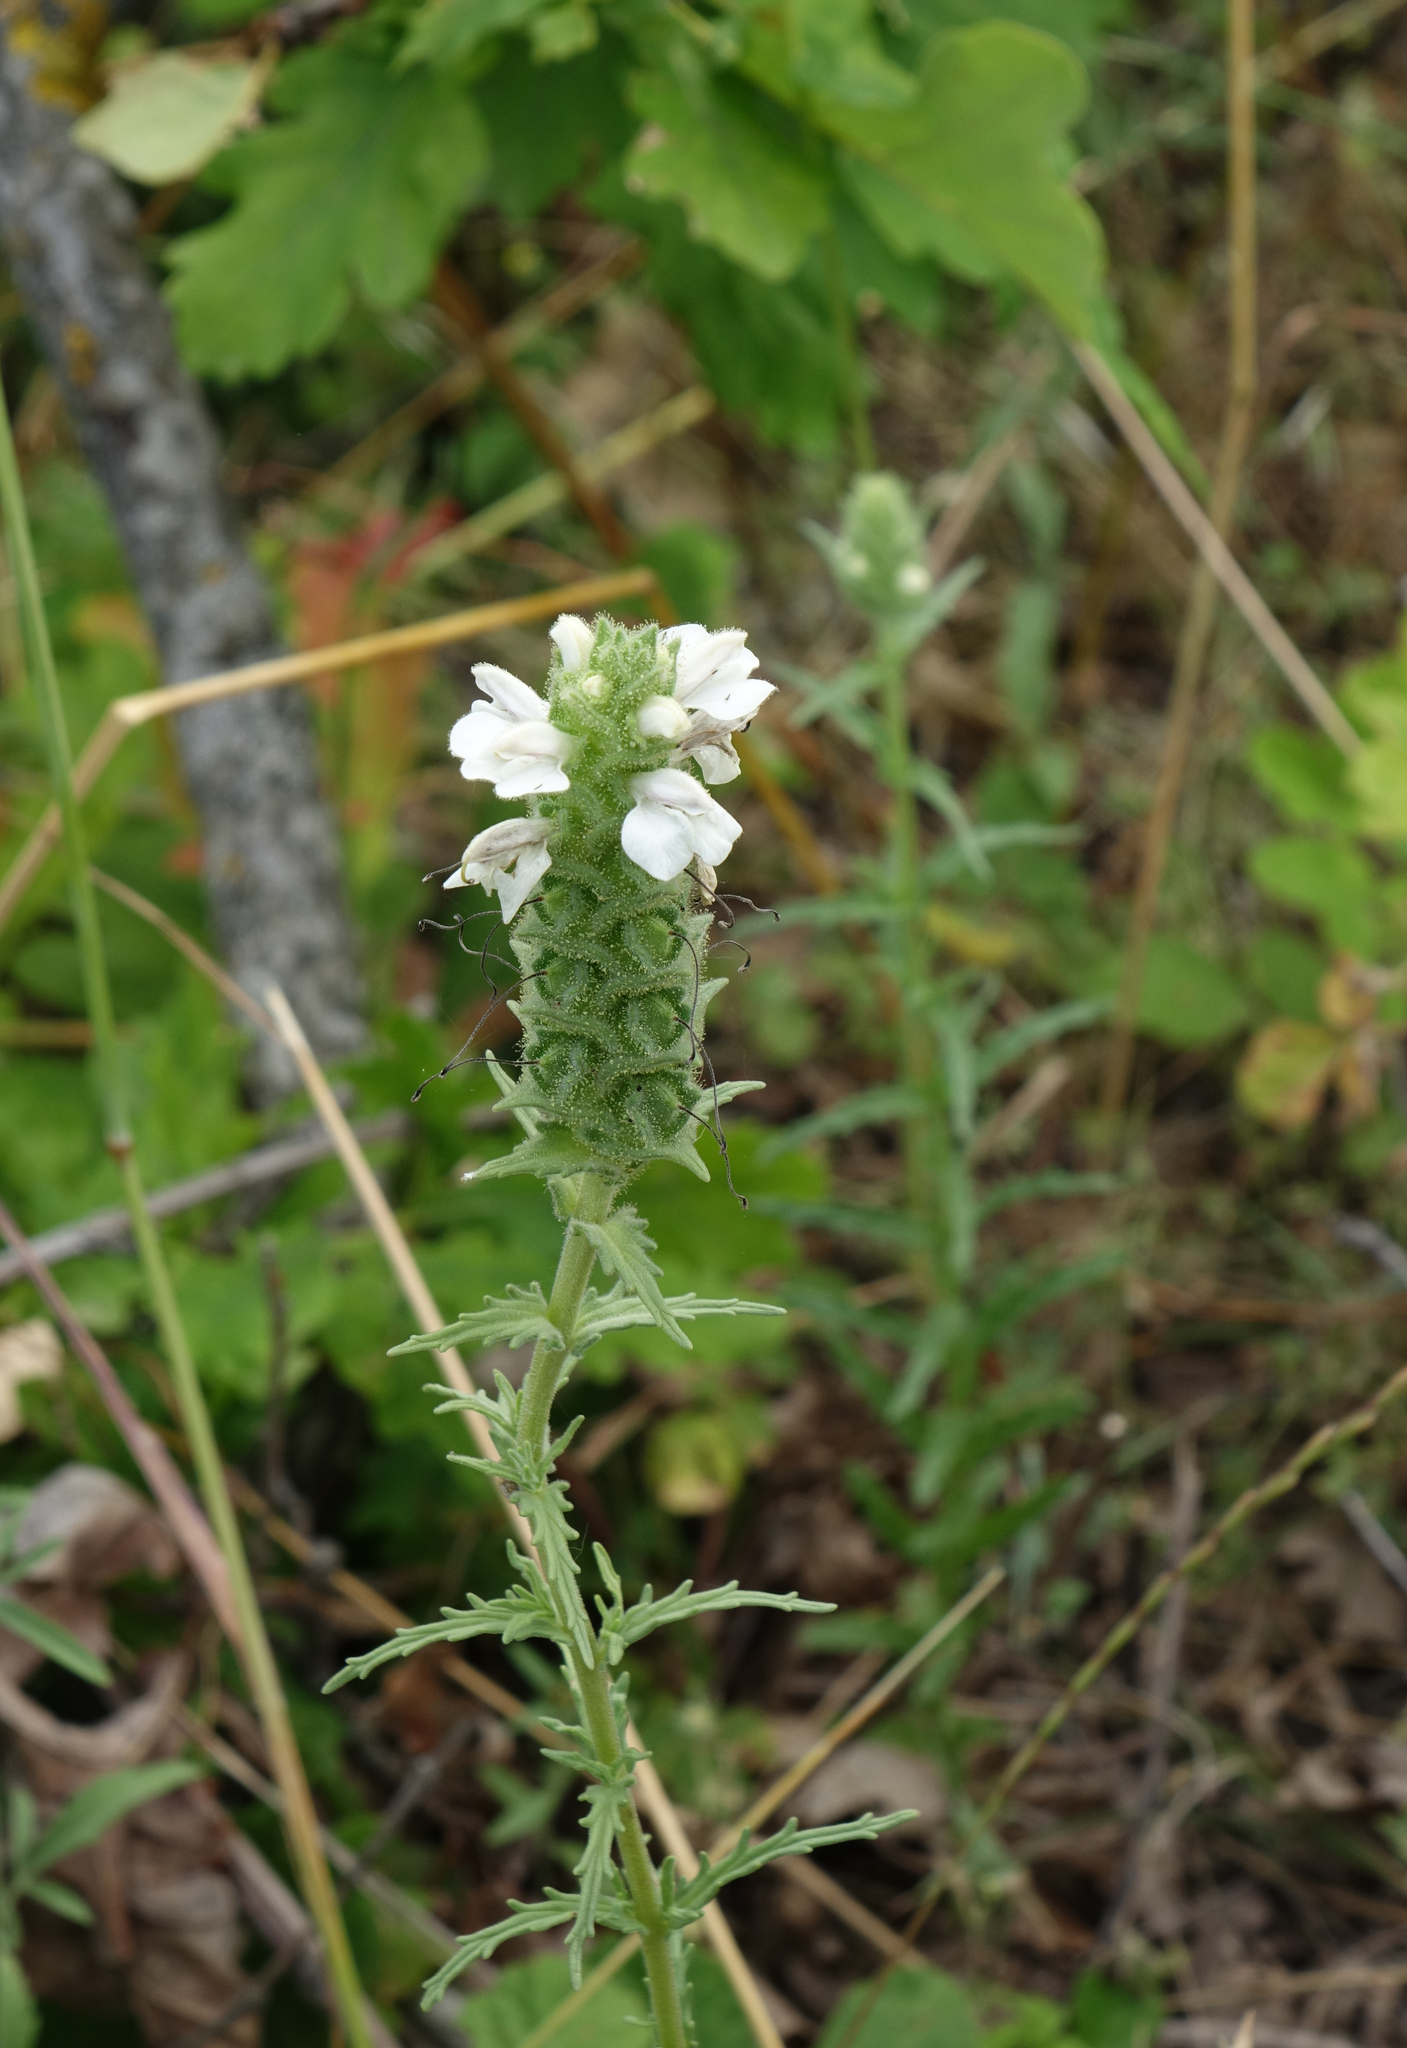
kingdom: Plantae
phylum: Tracheophyta
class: Magnoliopsida
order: Lamiales
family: Orobanchaceae
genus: Bellardia
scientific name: Bellardia trixago
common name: Mediterranean lineseed
